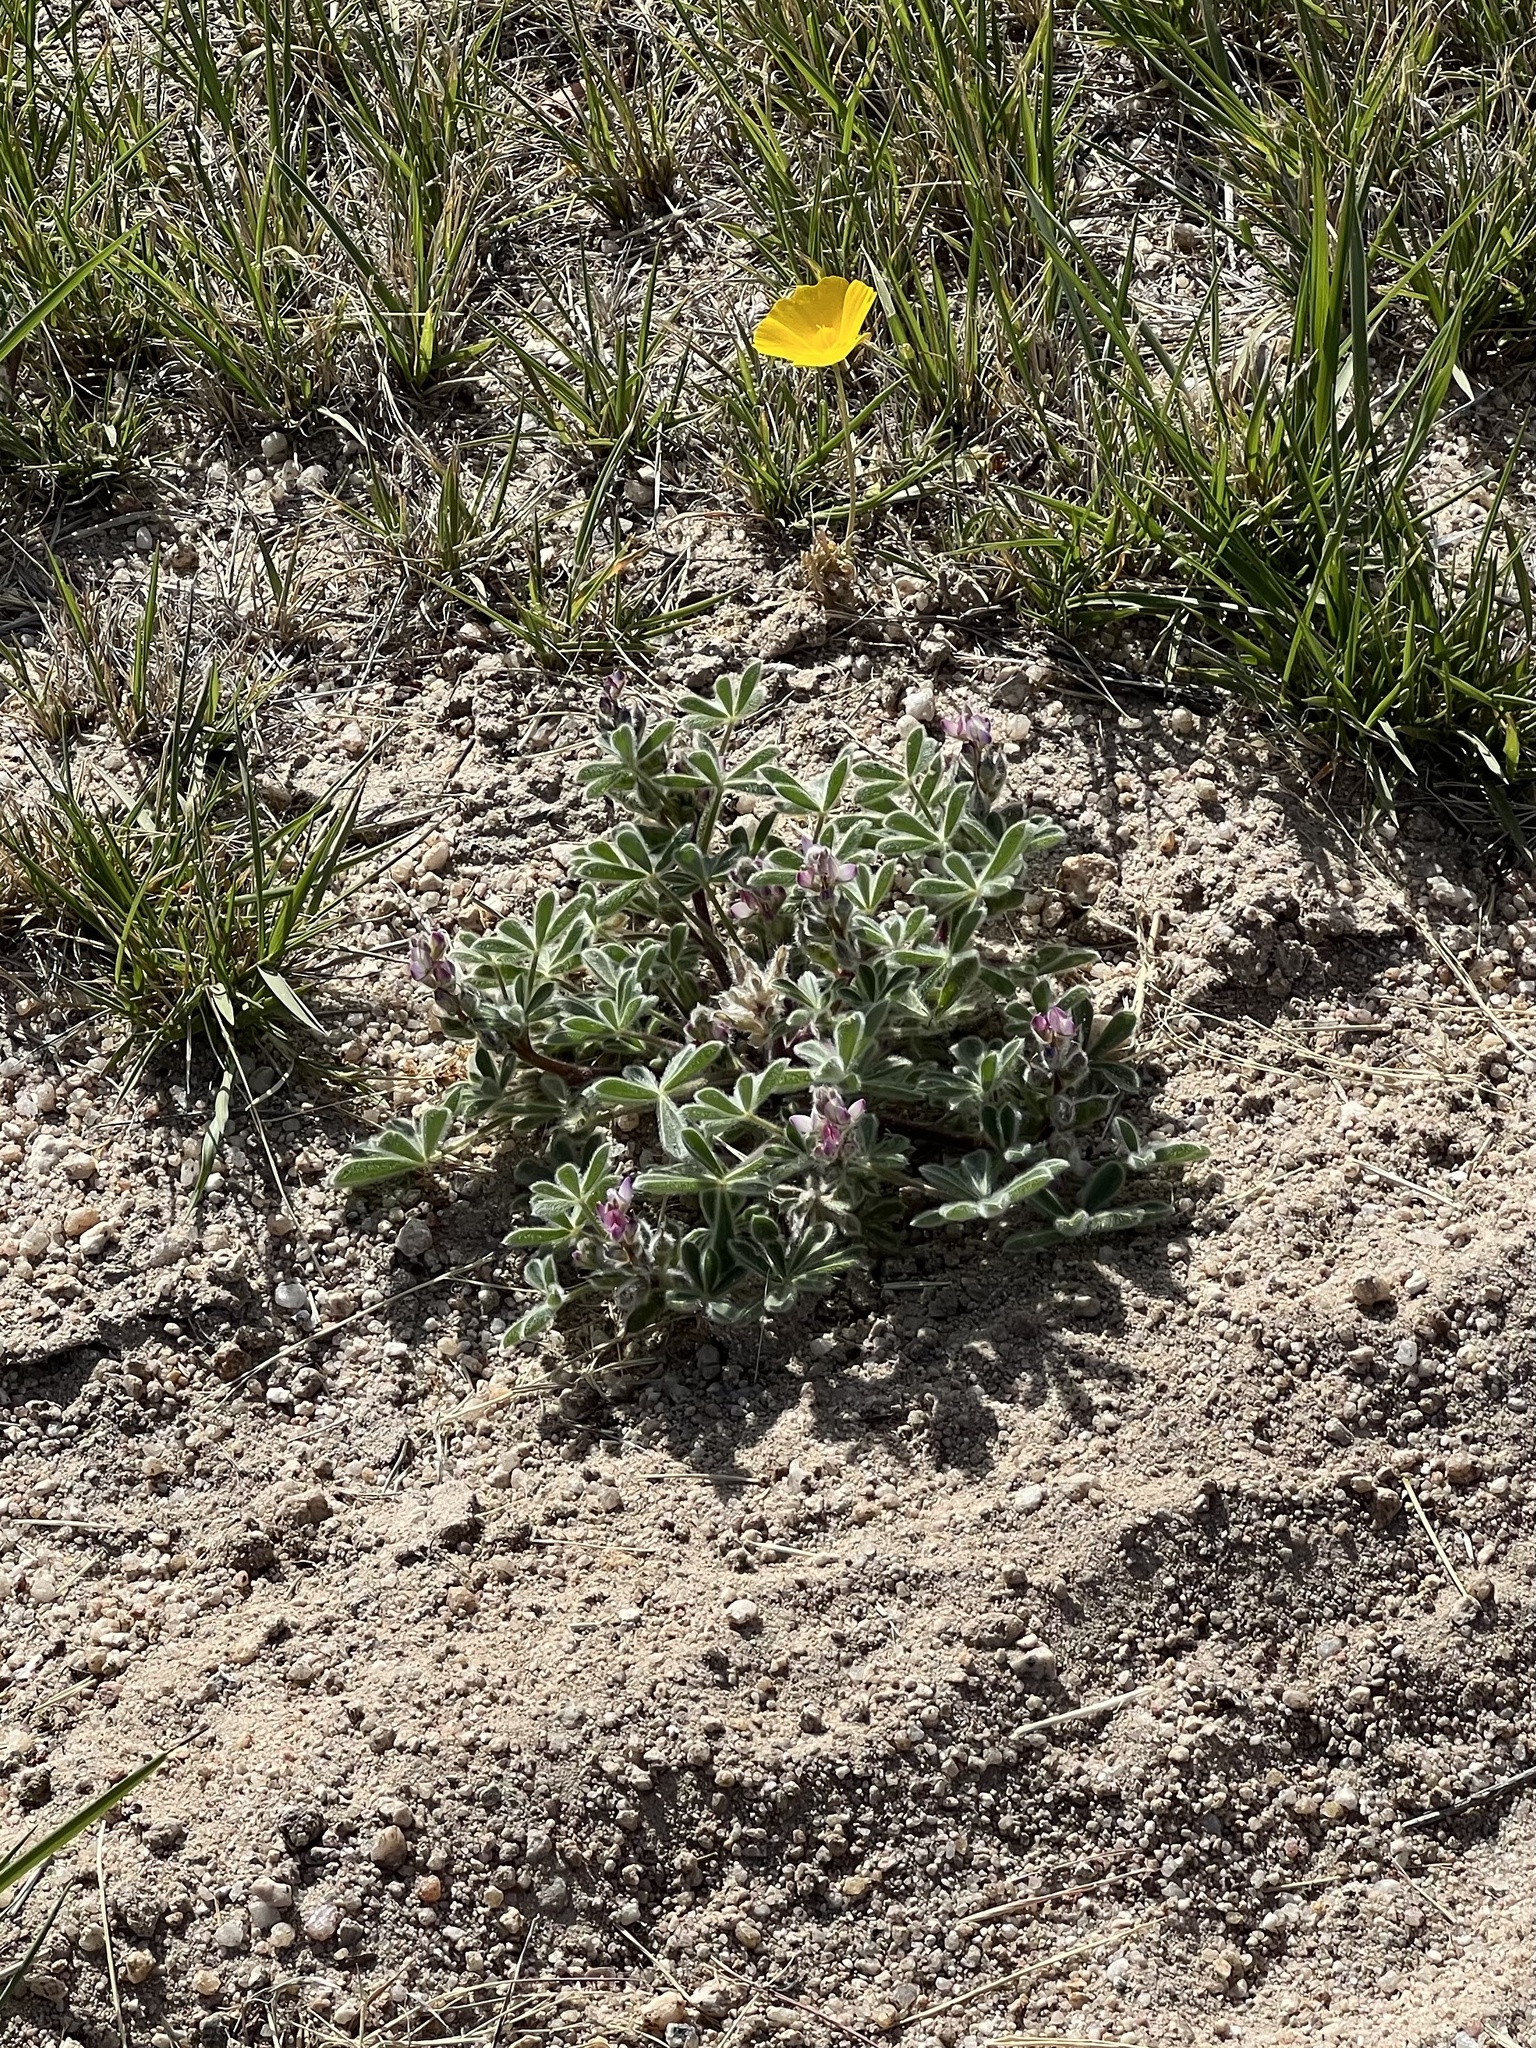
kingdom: Plantae
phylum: Tracheophyta
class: Magnoliopsida
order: Fabales
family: Fabaceae
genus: Lupinus
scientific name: Lupinus concinnus
